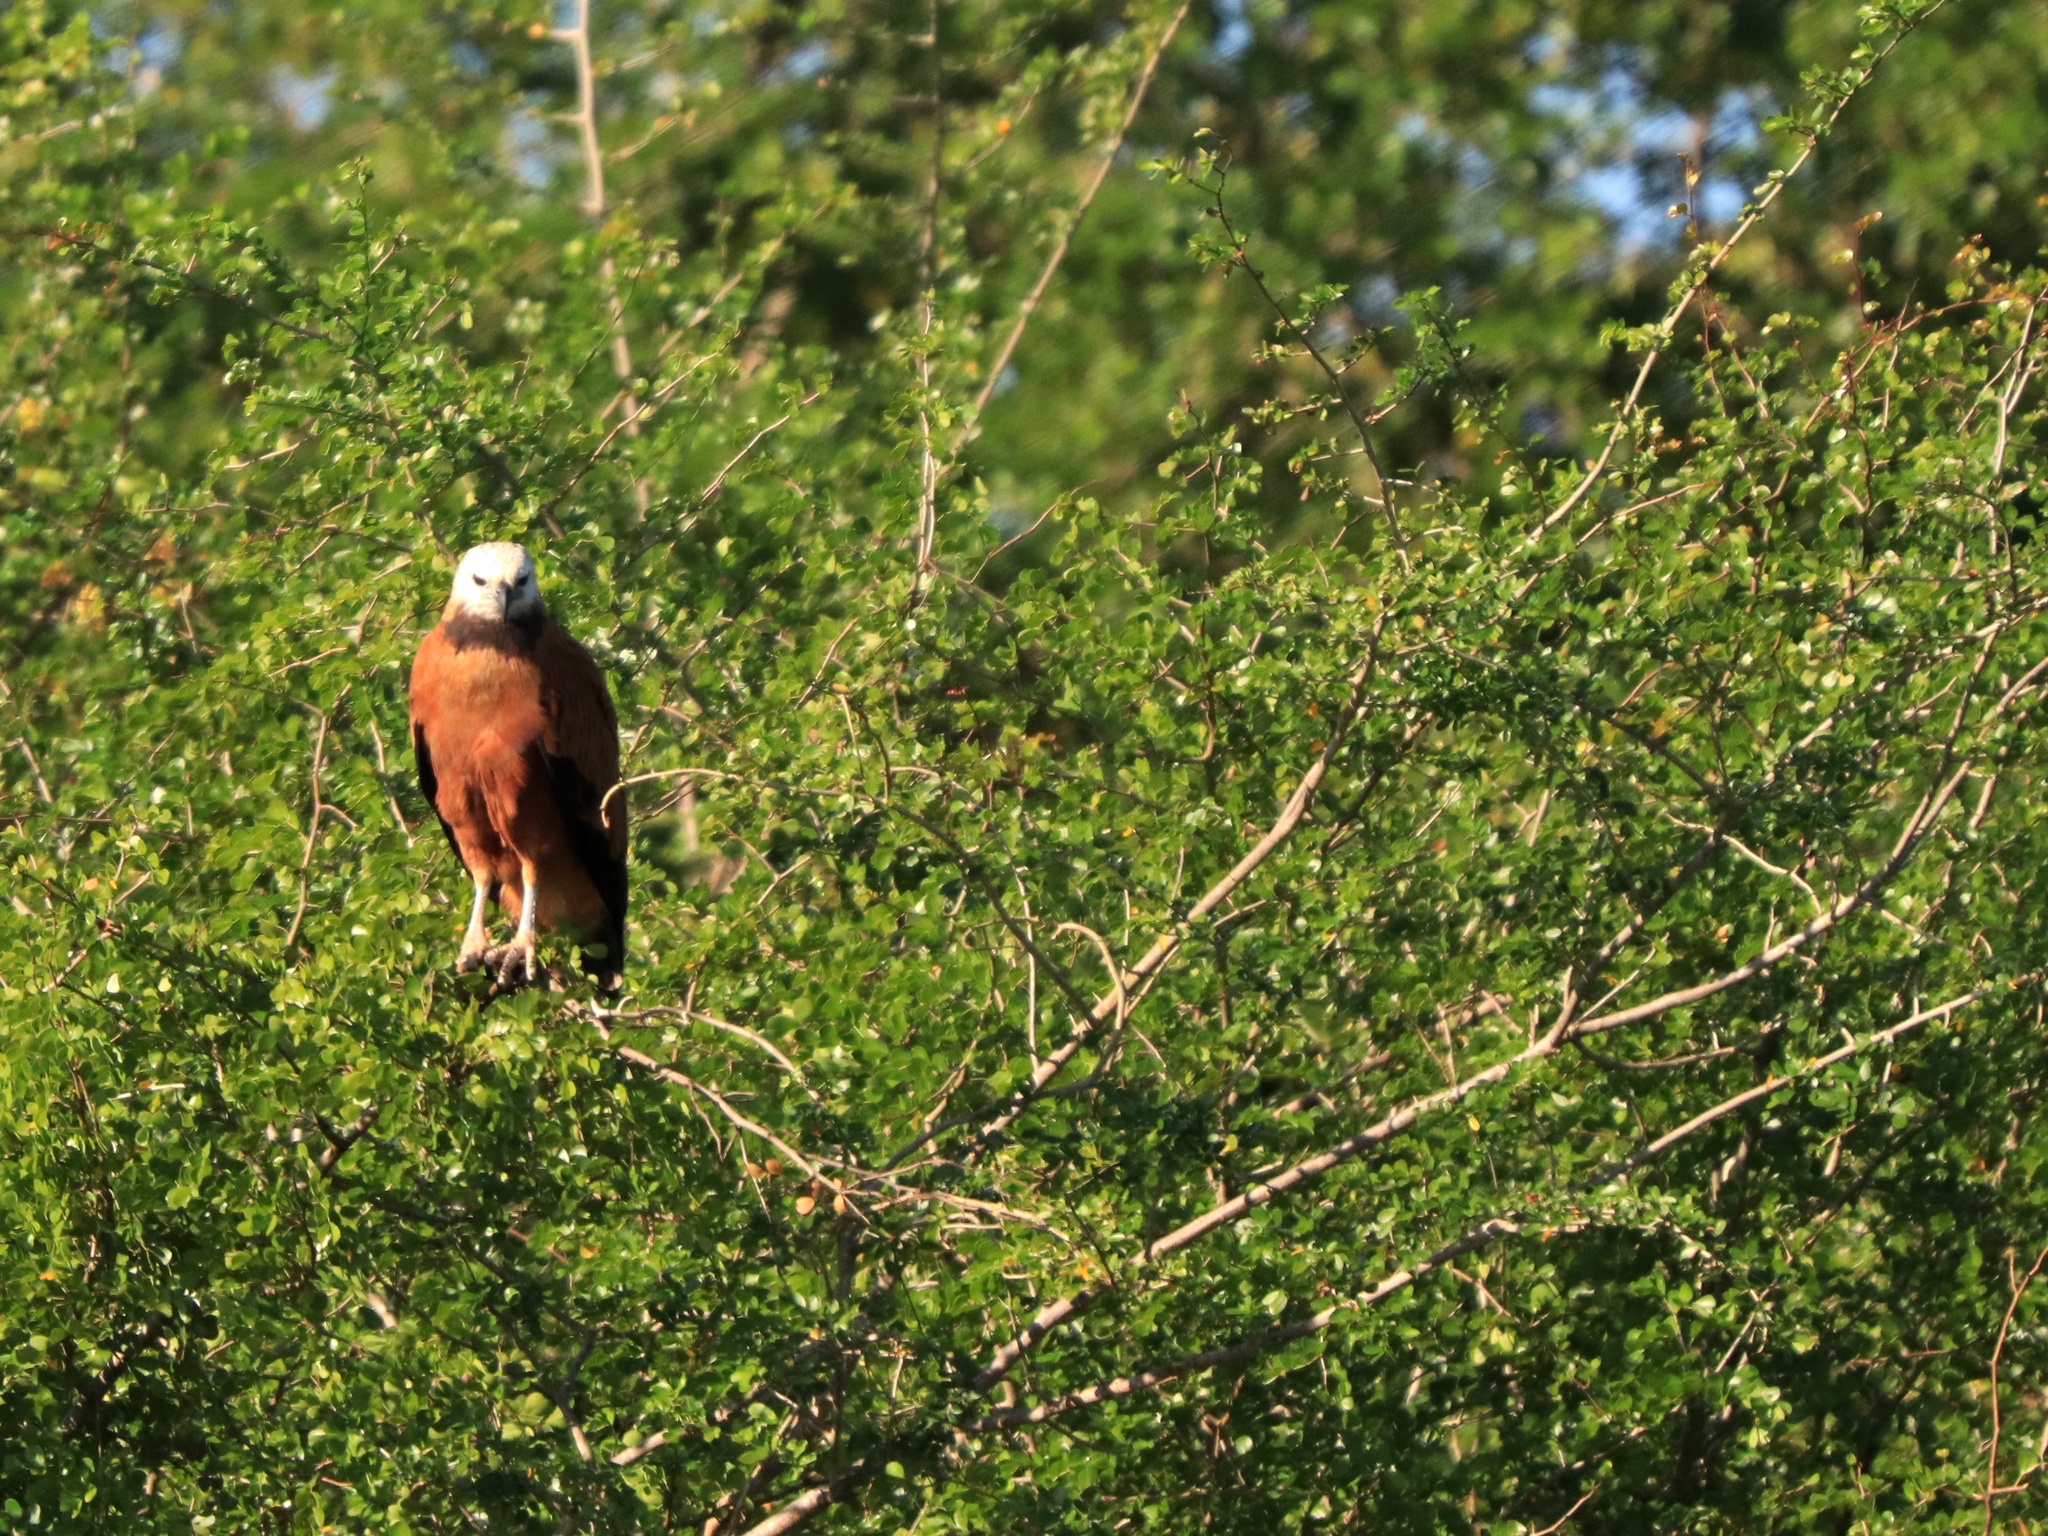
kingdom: Animalia
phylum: Chordata
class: Aves
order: Accipitriformes
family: Accipitridae
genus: Busarellus
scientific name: Busarellus nigricollis
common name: Black-collared hawk
